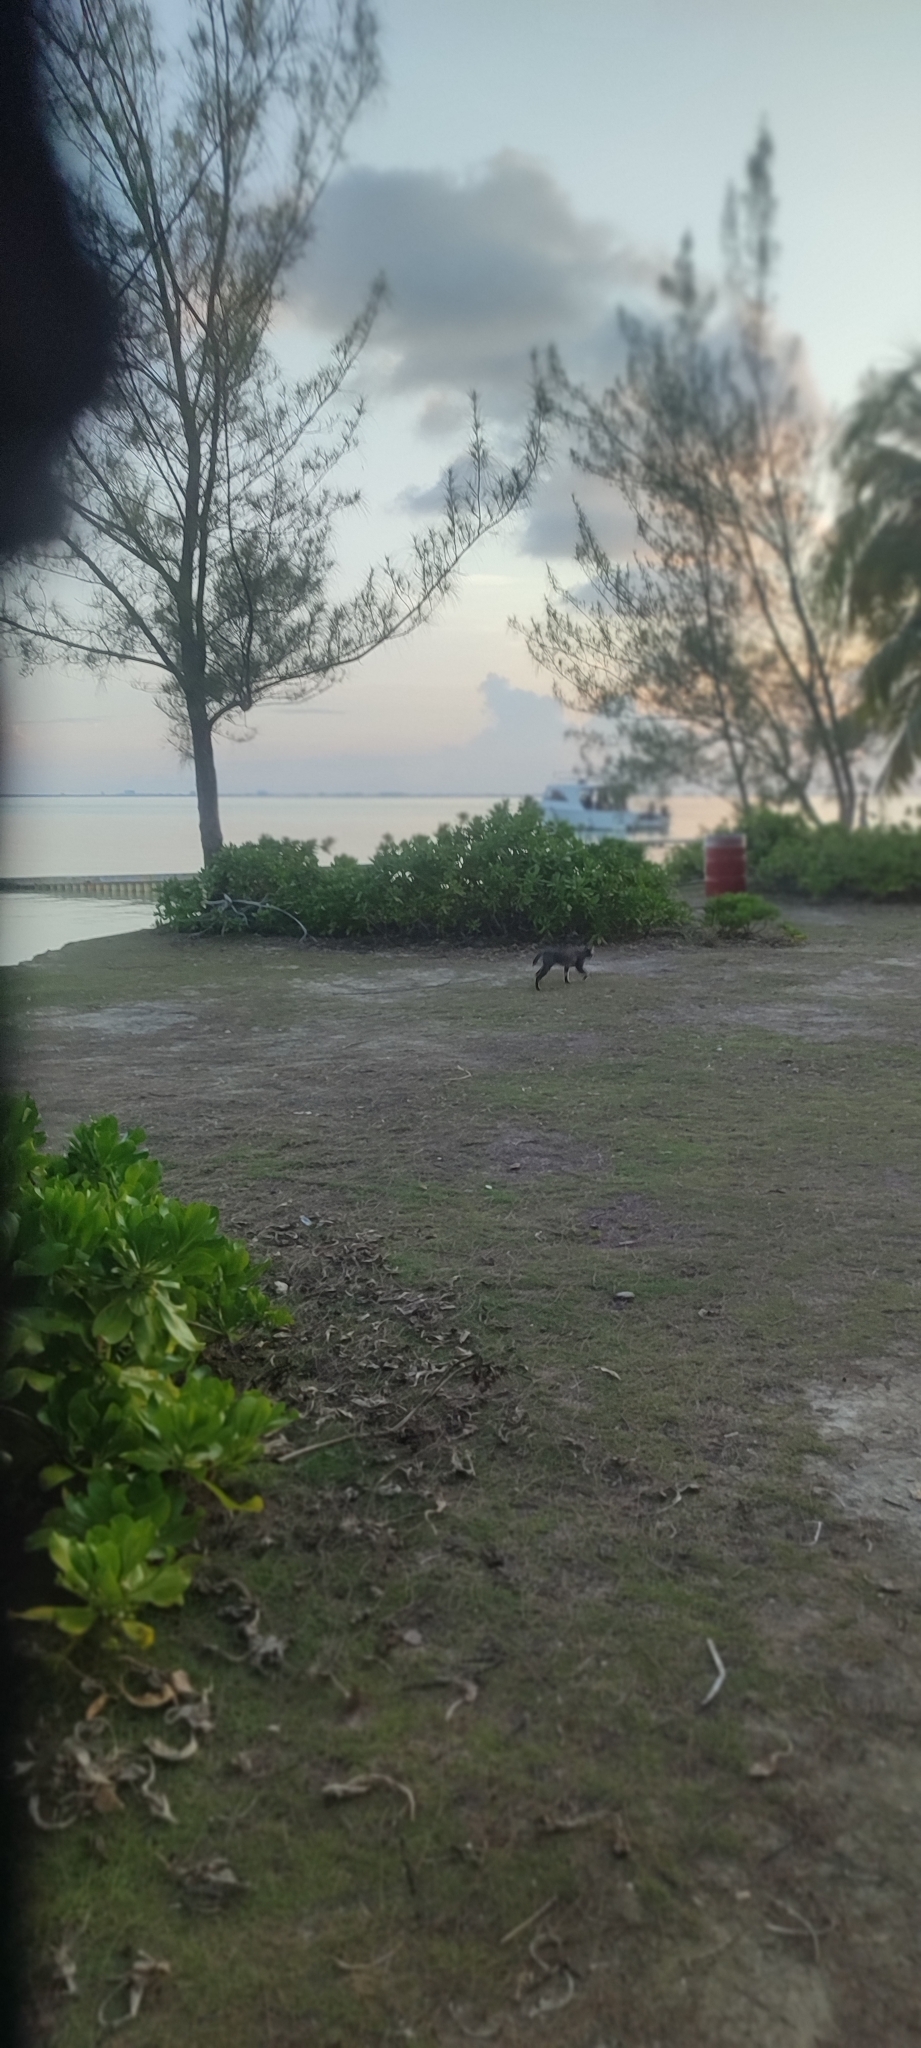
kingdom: Animalia
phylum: Chordata
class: Mammalia
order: Carnivora
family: Felidae
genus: Felis
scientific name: Felis catus
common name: Domestic cat
